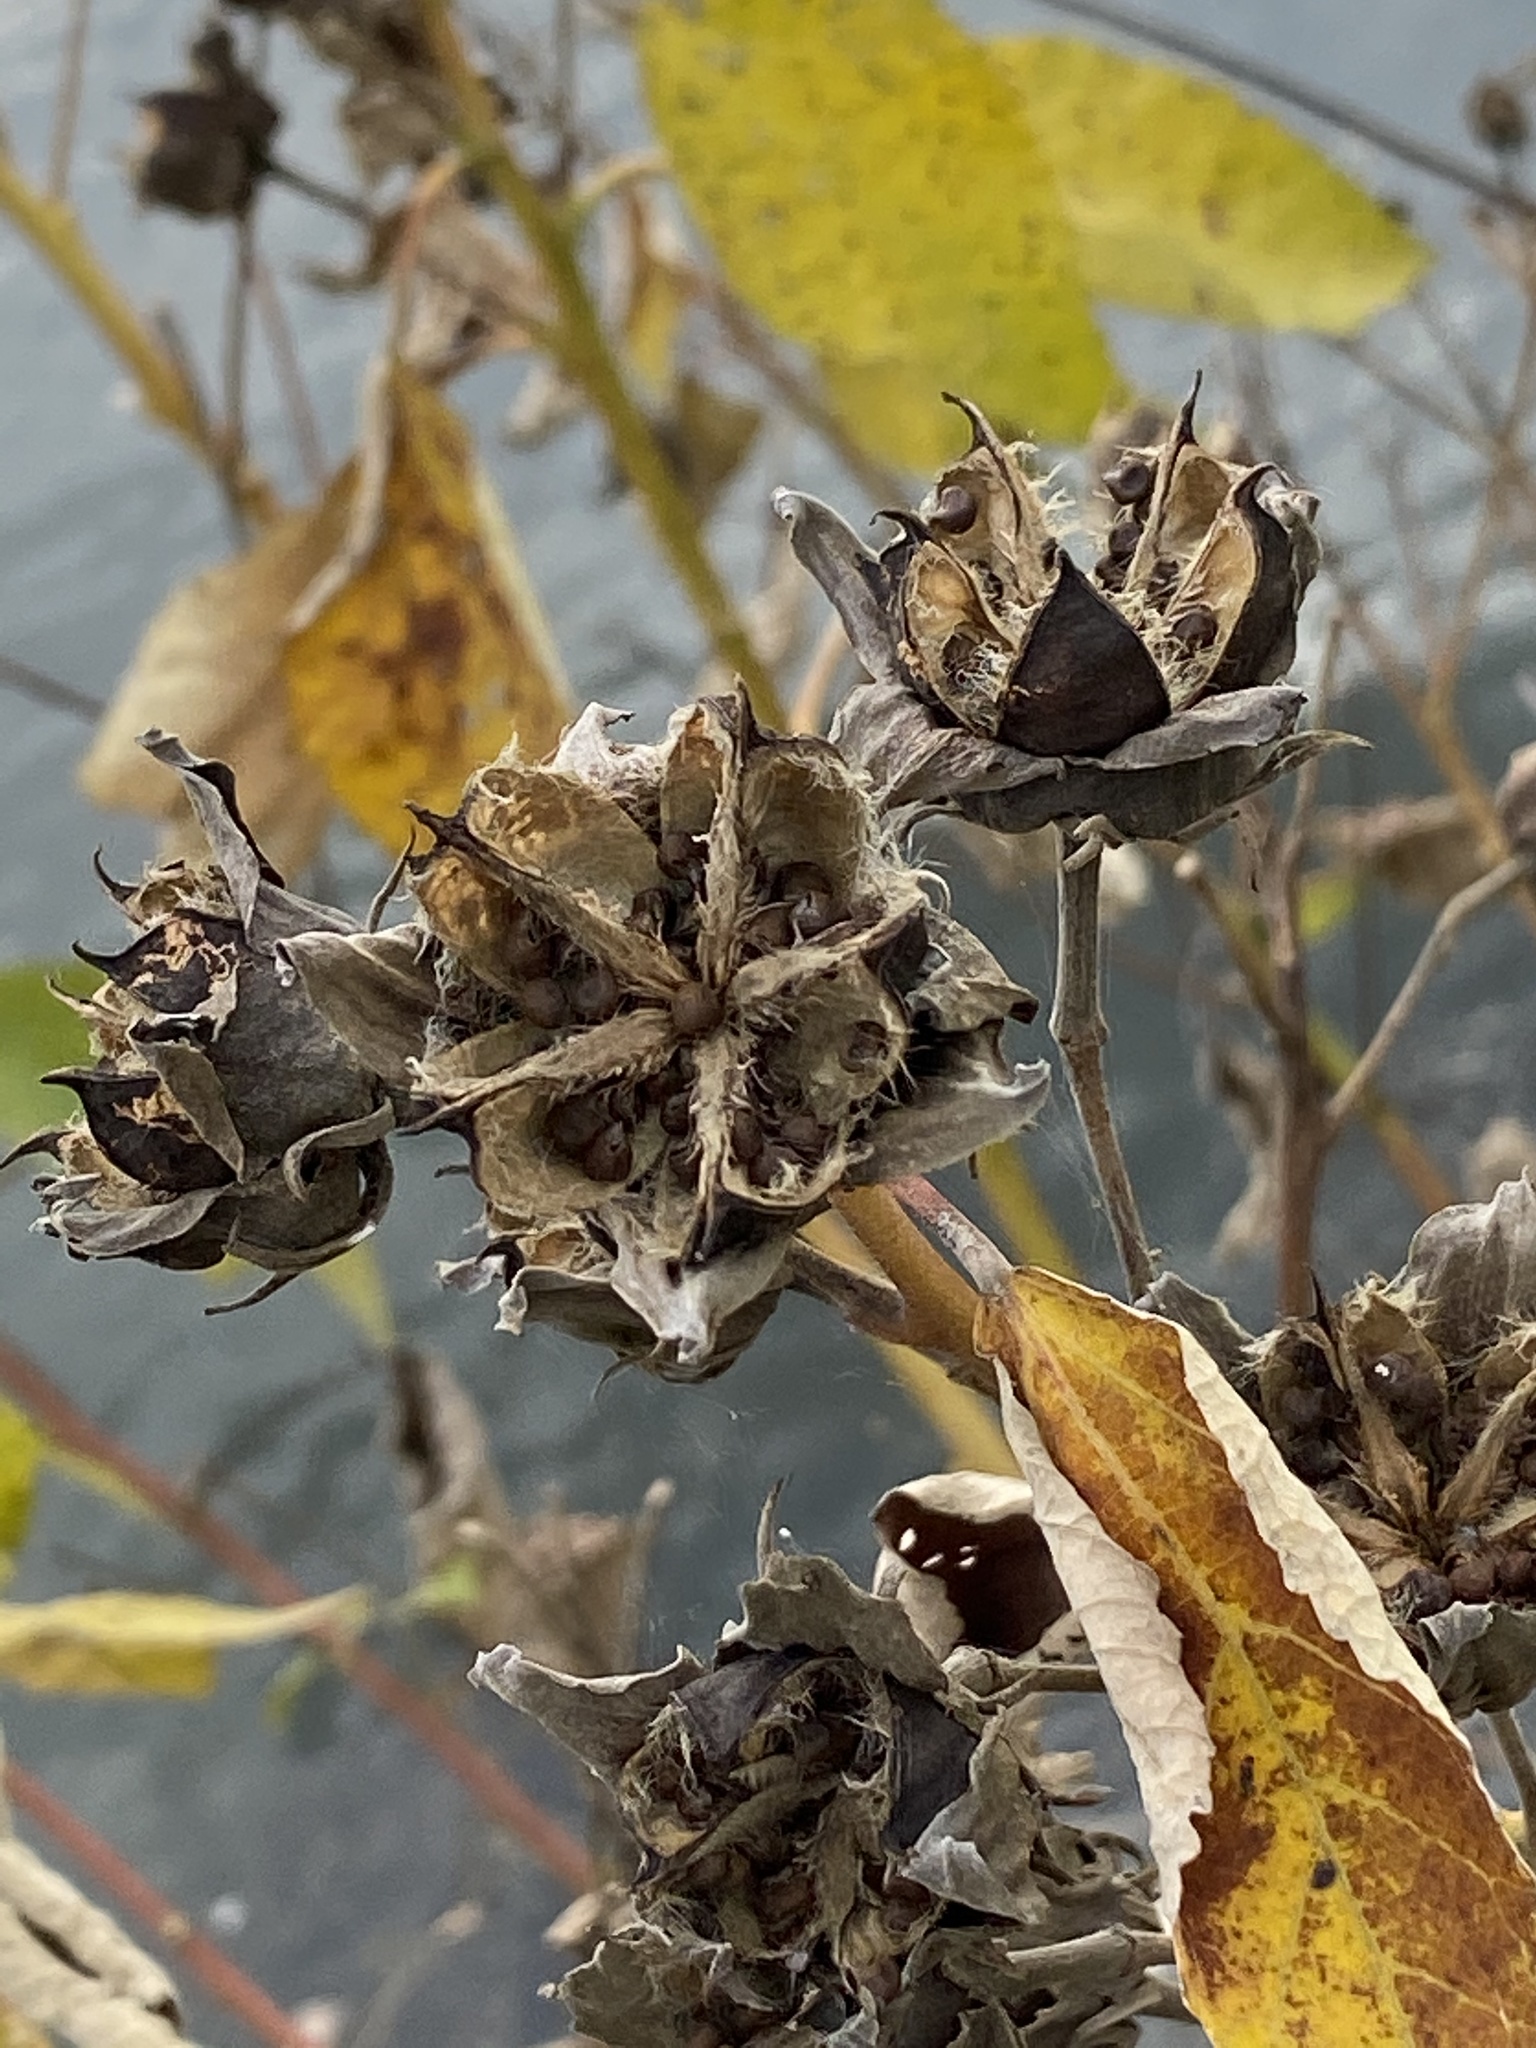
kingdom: Plantae
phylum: Tracheophyta
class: Magnoliopsida
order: Malvales
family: Malvaceae
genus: Hibiscus
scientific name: Hibiscus moscheutos
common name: Common rose-mallow
